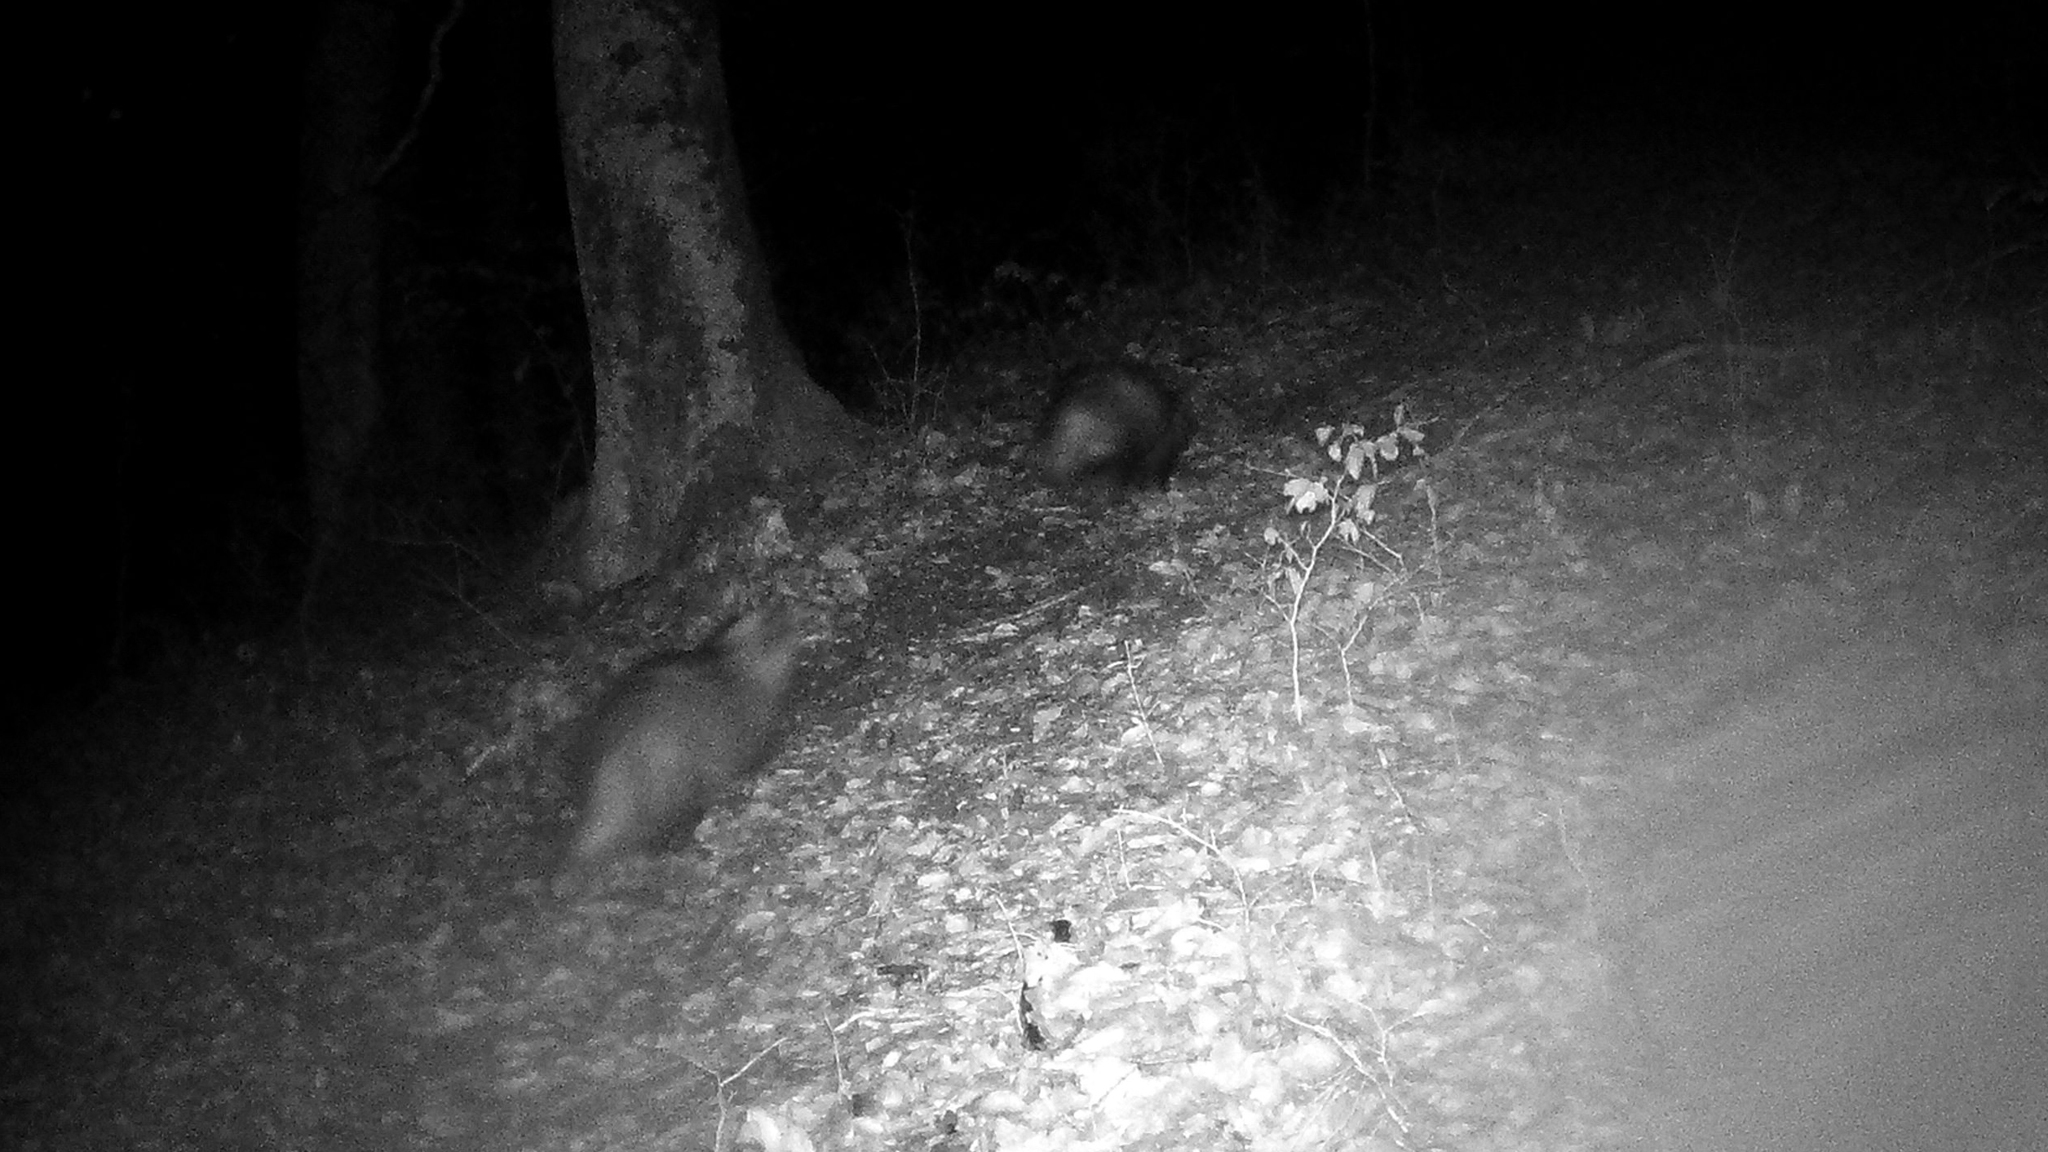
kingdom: Animalia
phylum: Chordata
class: Mammalia
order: Carnivora
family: Mustelidae
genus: Meles
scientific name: Meles meles
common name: Eurasian badger
